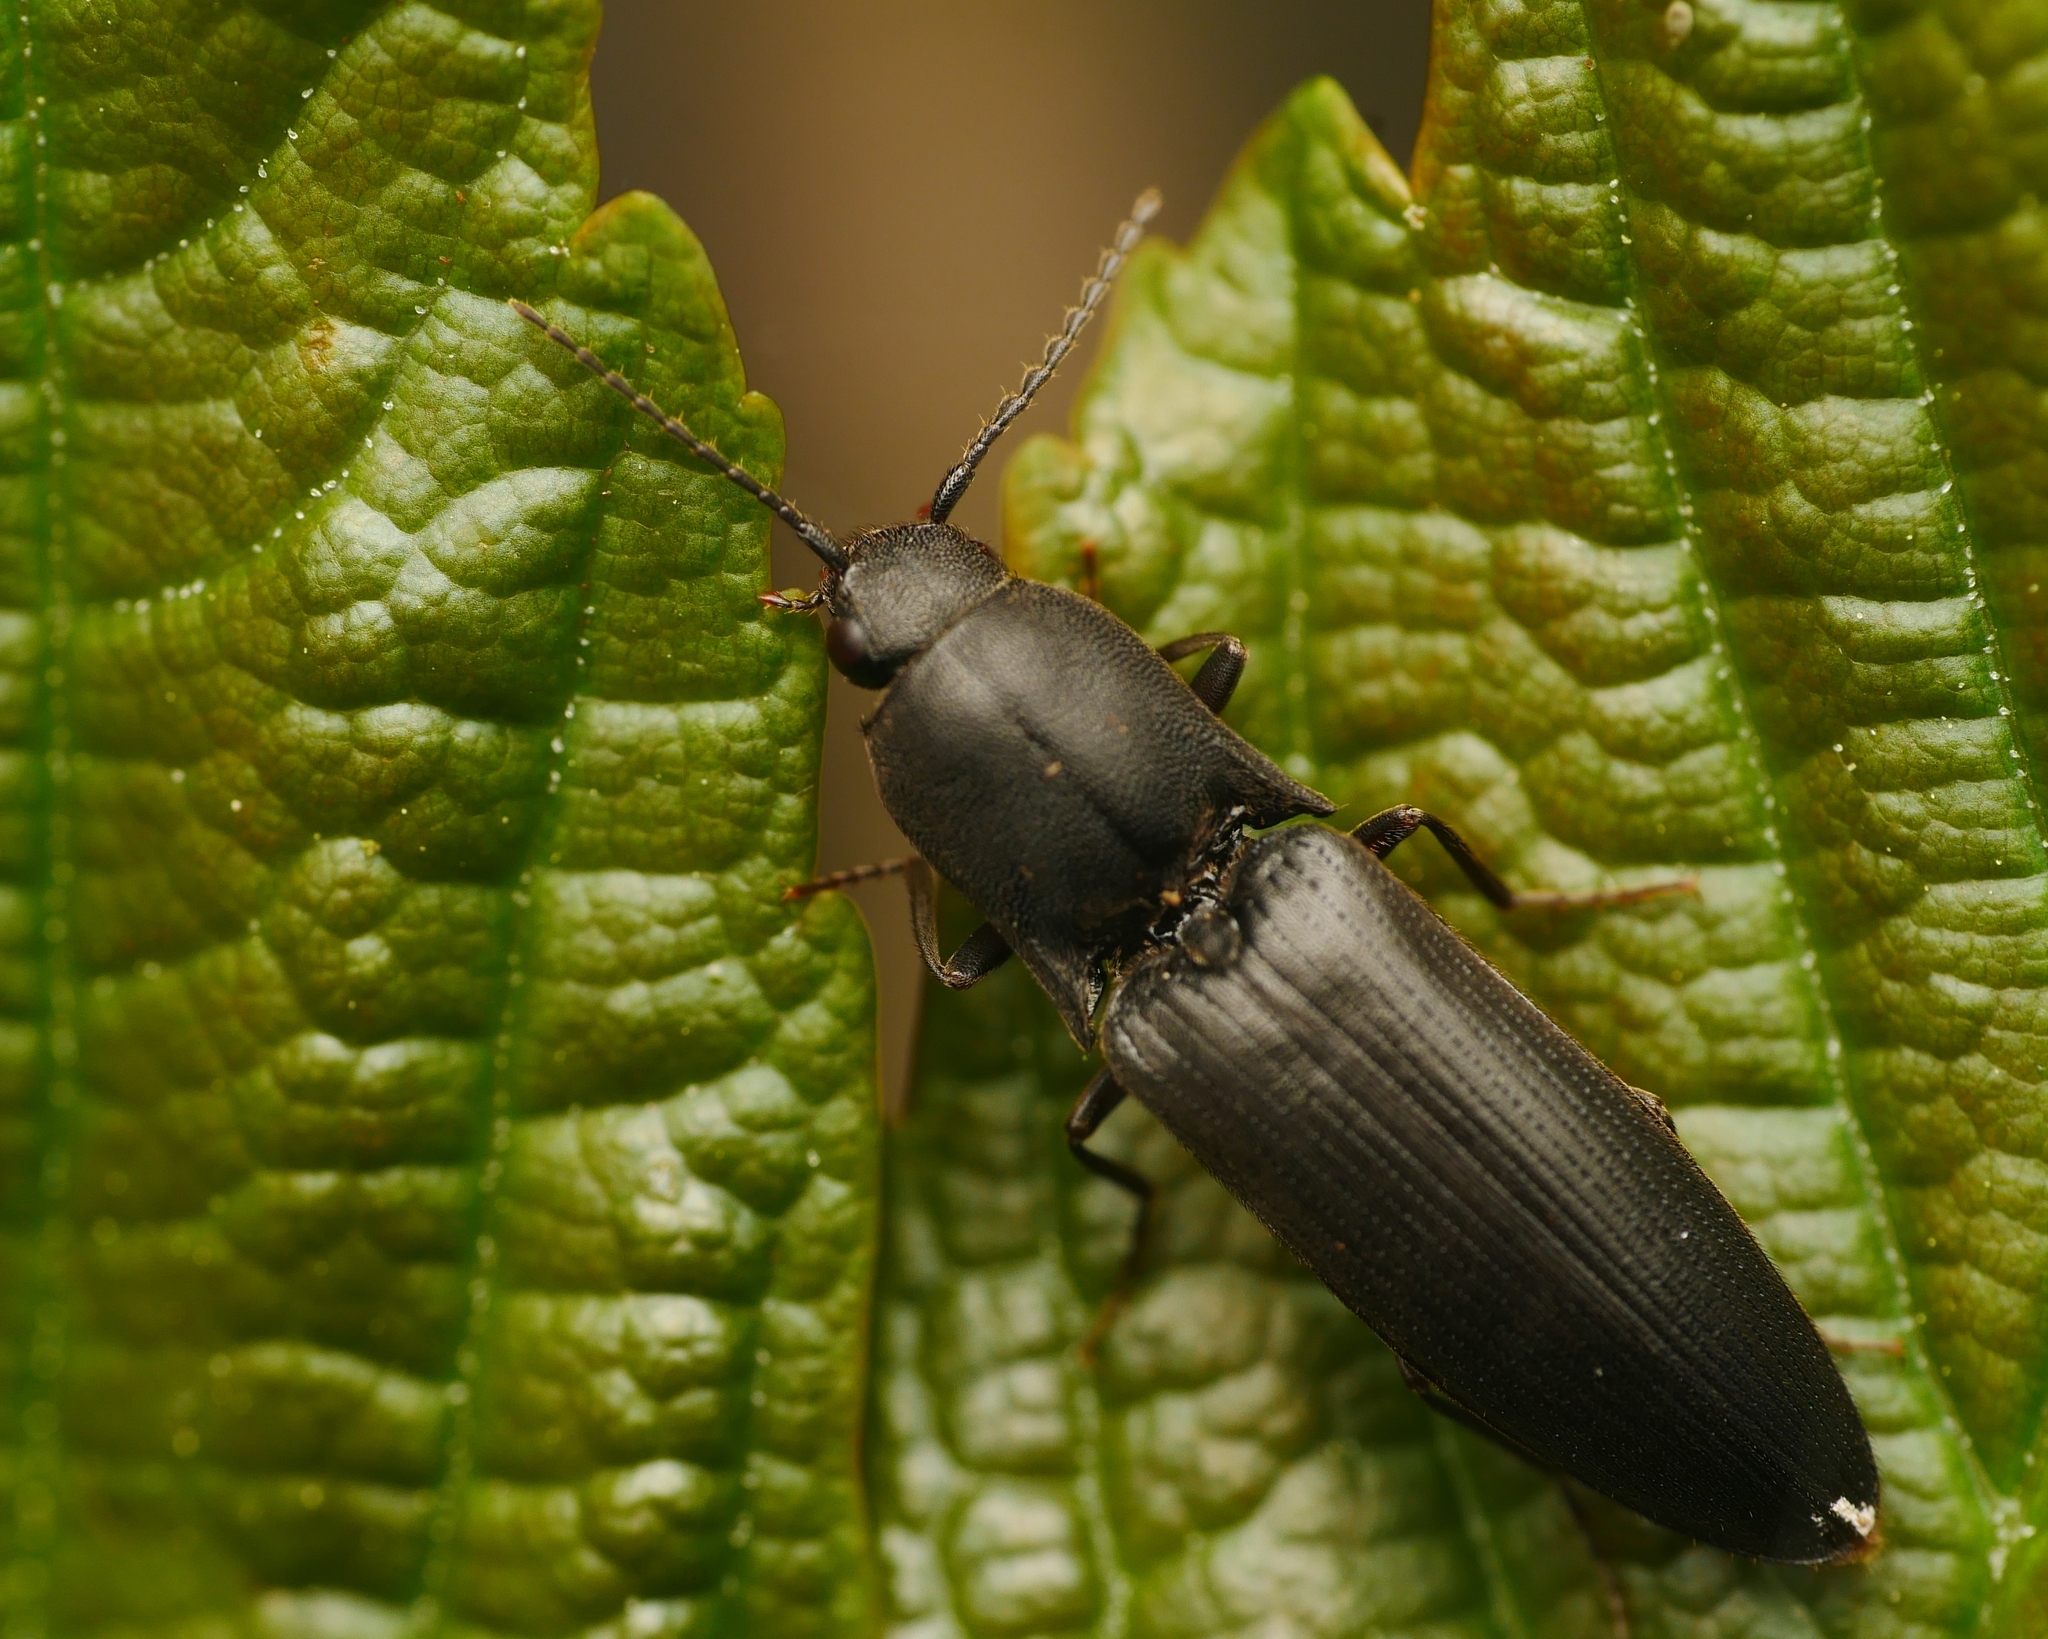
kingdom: Animalia
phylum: Arthropoda
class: Insecta
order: Coleoptera
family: Elateridae
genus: Ectinus
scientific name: Ectinus aterrimus
